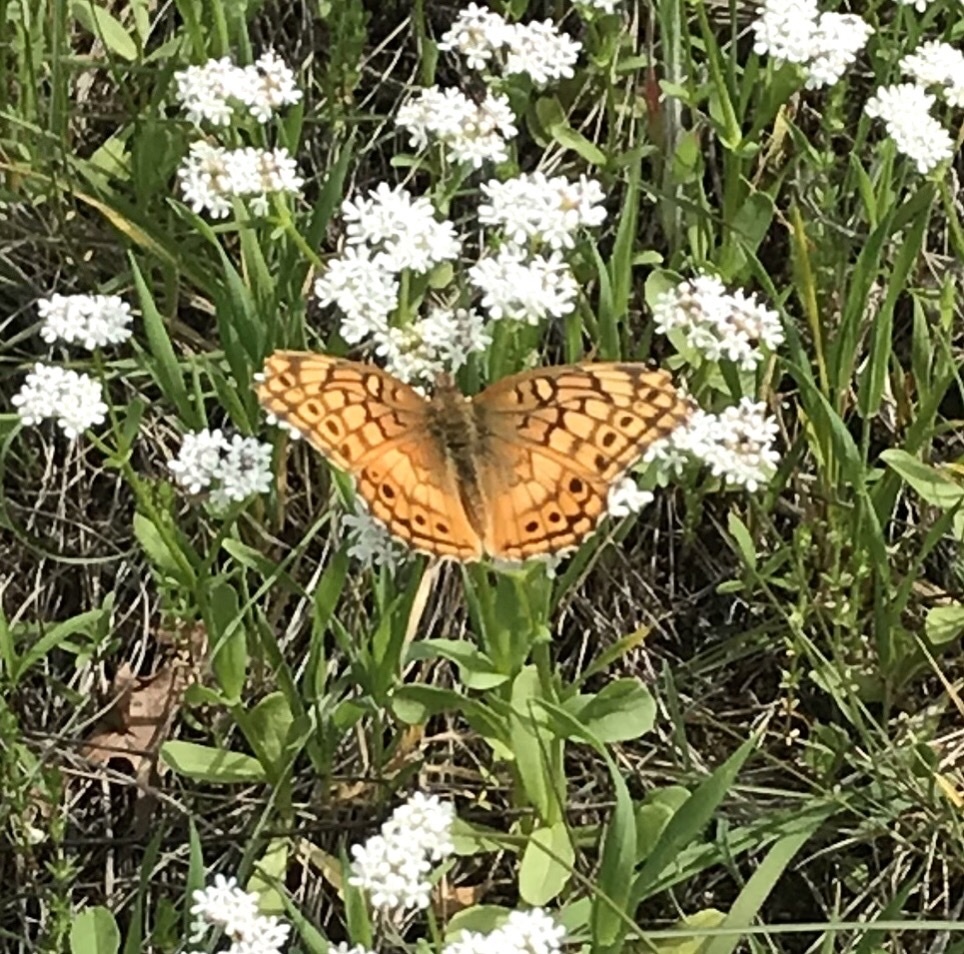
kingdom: Animalia
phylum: Arthropoda
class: Insecta
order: Lepidoptera
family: Nymphalidae
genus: Euptoieta
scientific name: Euptoieta claudia
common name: Variegated fritillary
